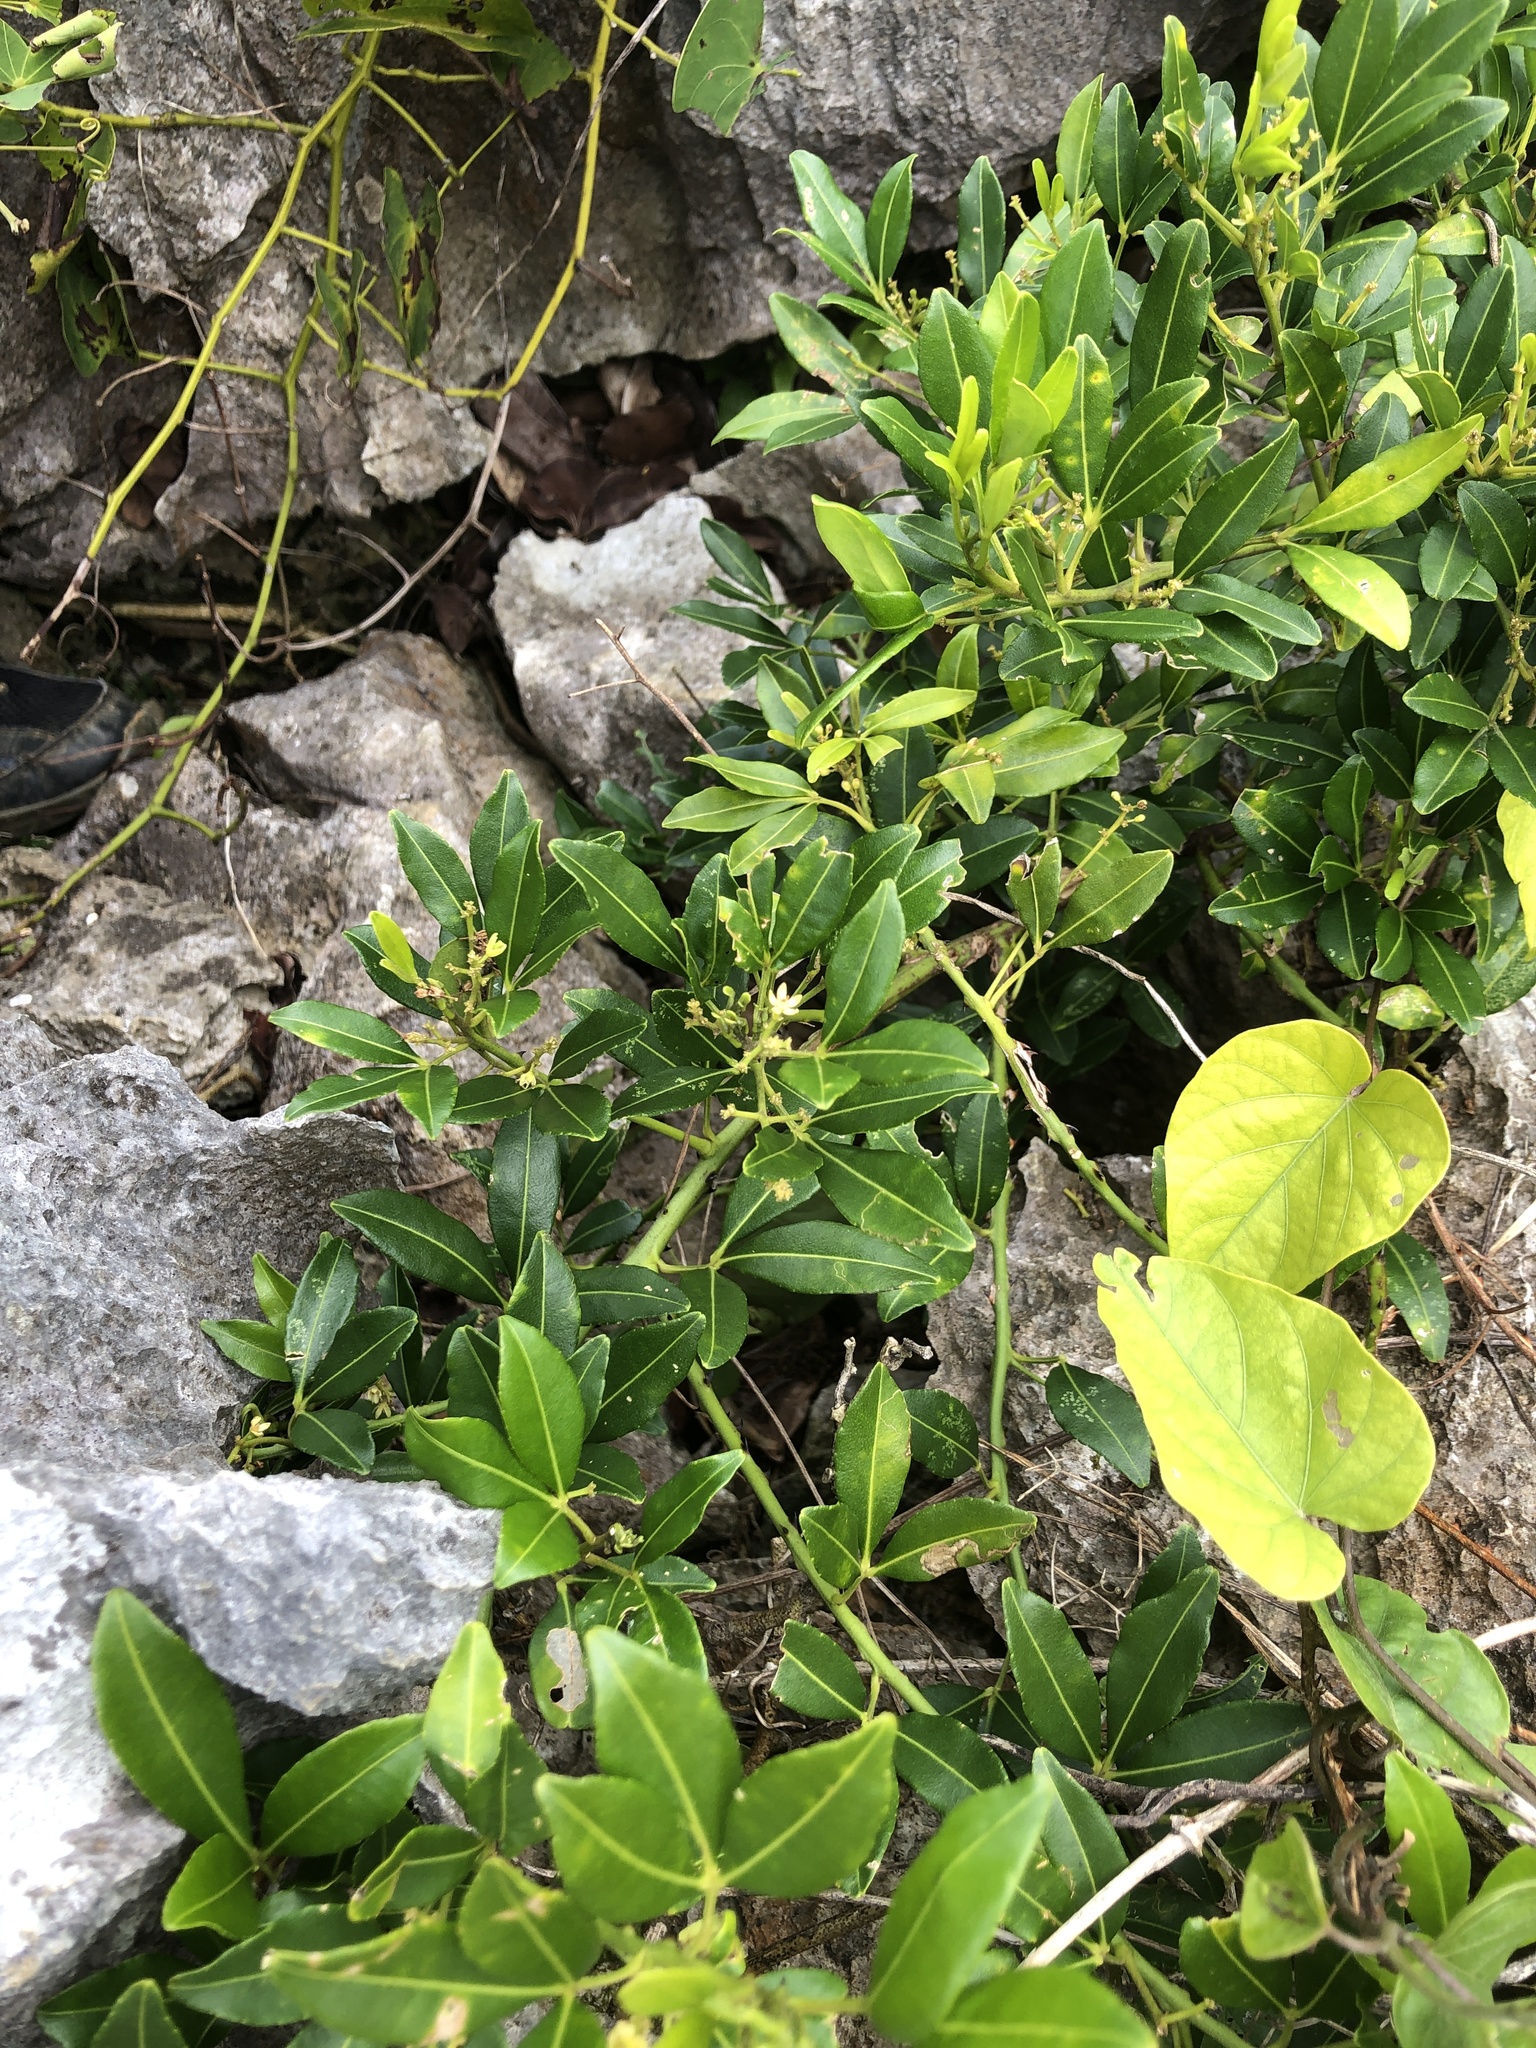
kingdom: Plantae
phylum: Tracheophyta
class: Magnoliopsida
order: Sapindales
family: Rutaceae
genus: Zanthoxylum
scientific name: Zanthoxylum asiaticum
